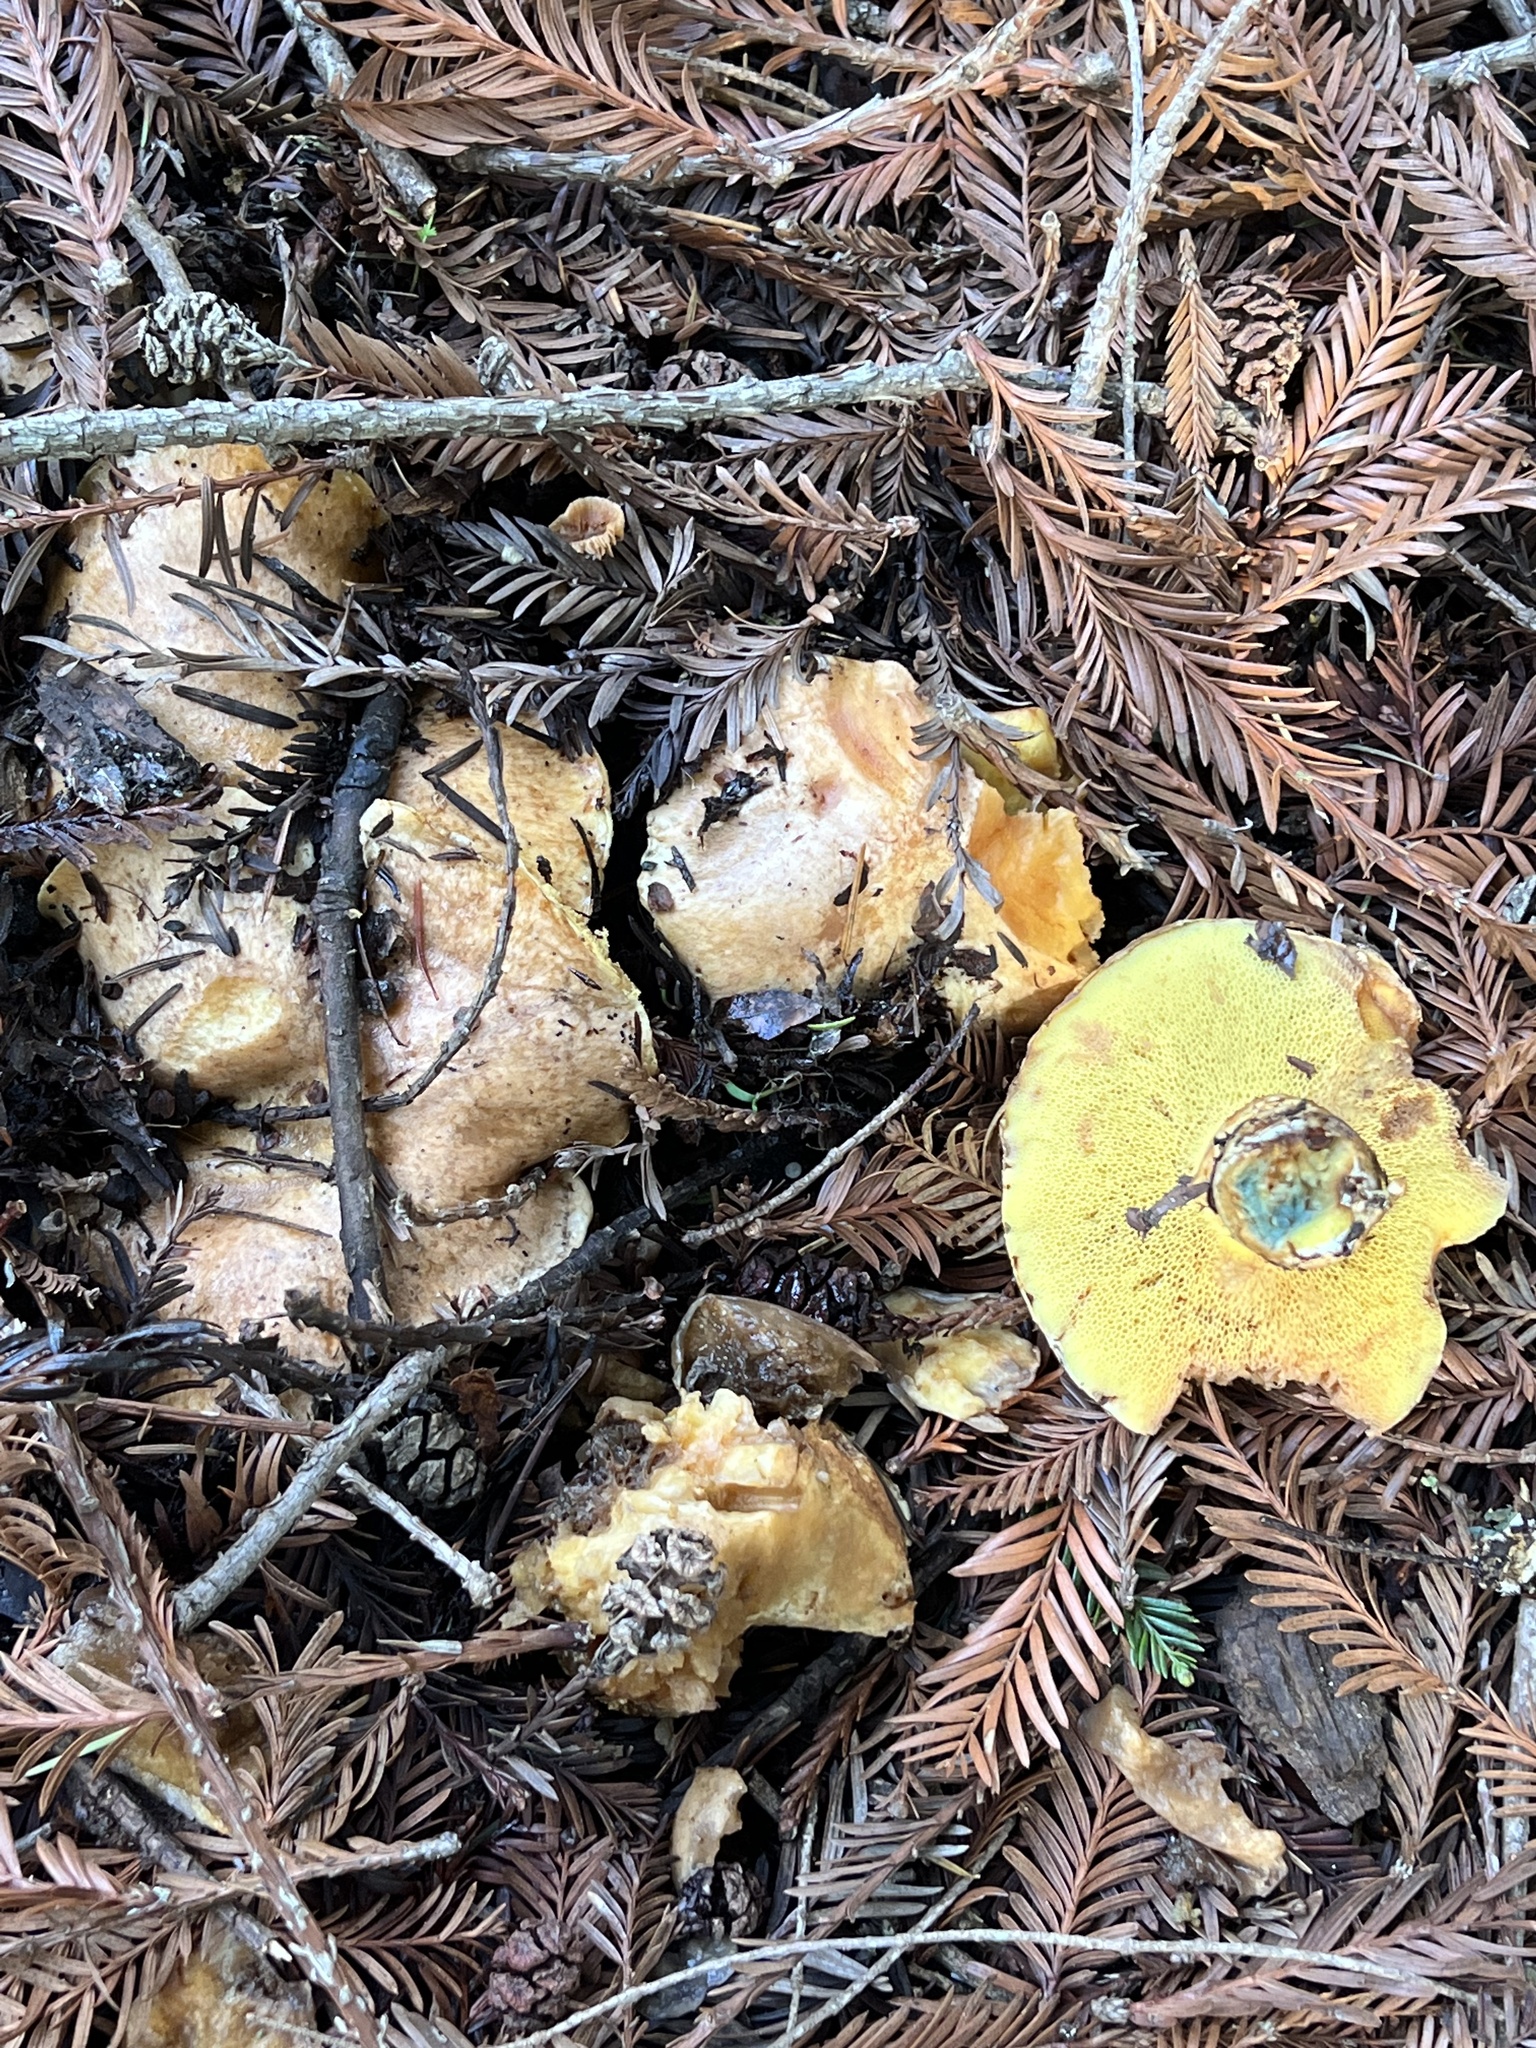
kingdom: Fungi
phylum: Basidiomycota
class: Agaricomycetes
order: Boletales
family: Suillaceae
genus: Suillus
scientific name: Suillus caerulescens
